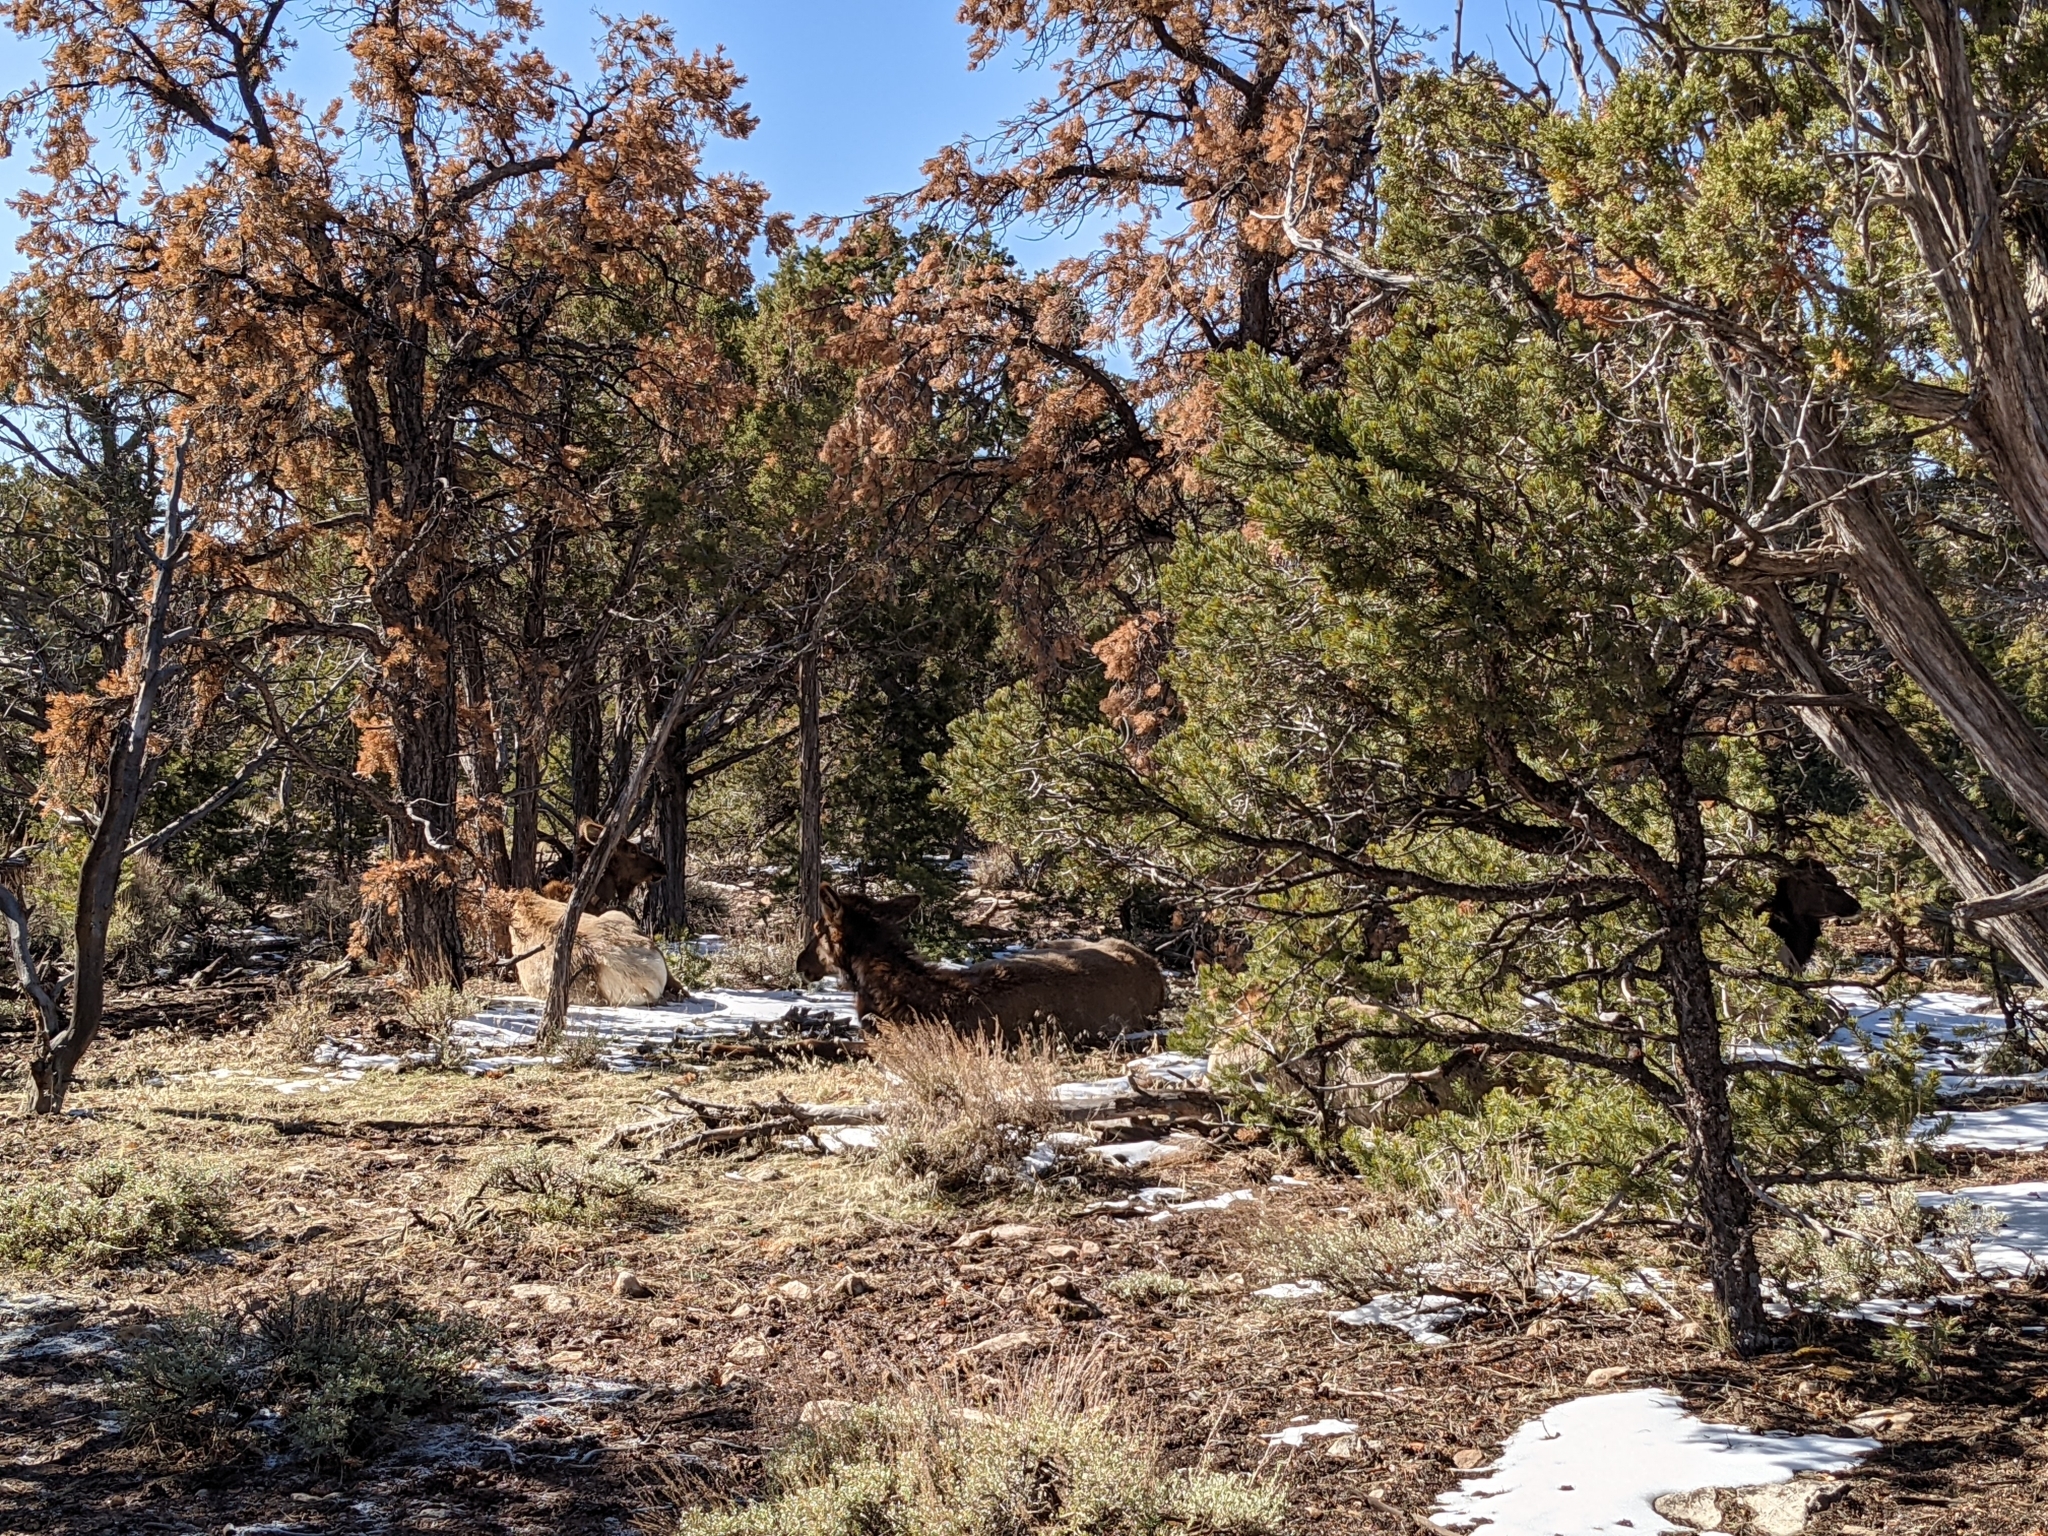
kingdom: Animalia
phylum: Chordata
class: Mammalia
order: Artiodactyla
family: Cervidae
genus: Cervus
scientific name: Cervus elaphus
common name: Red deer
